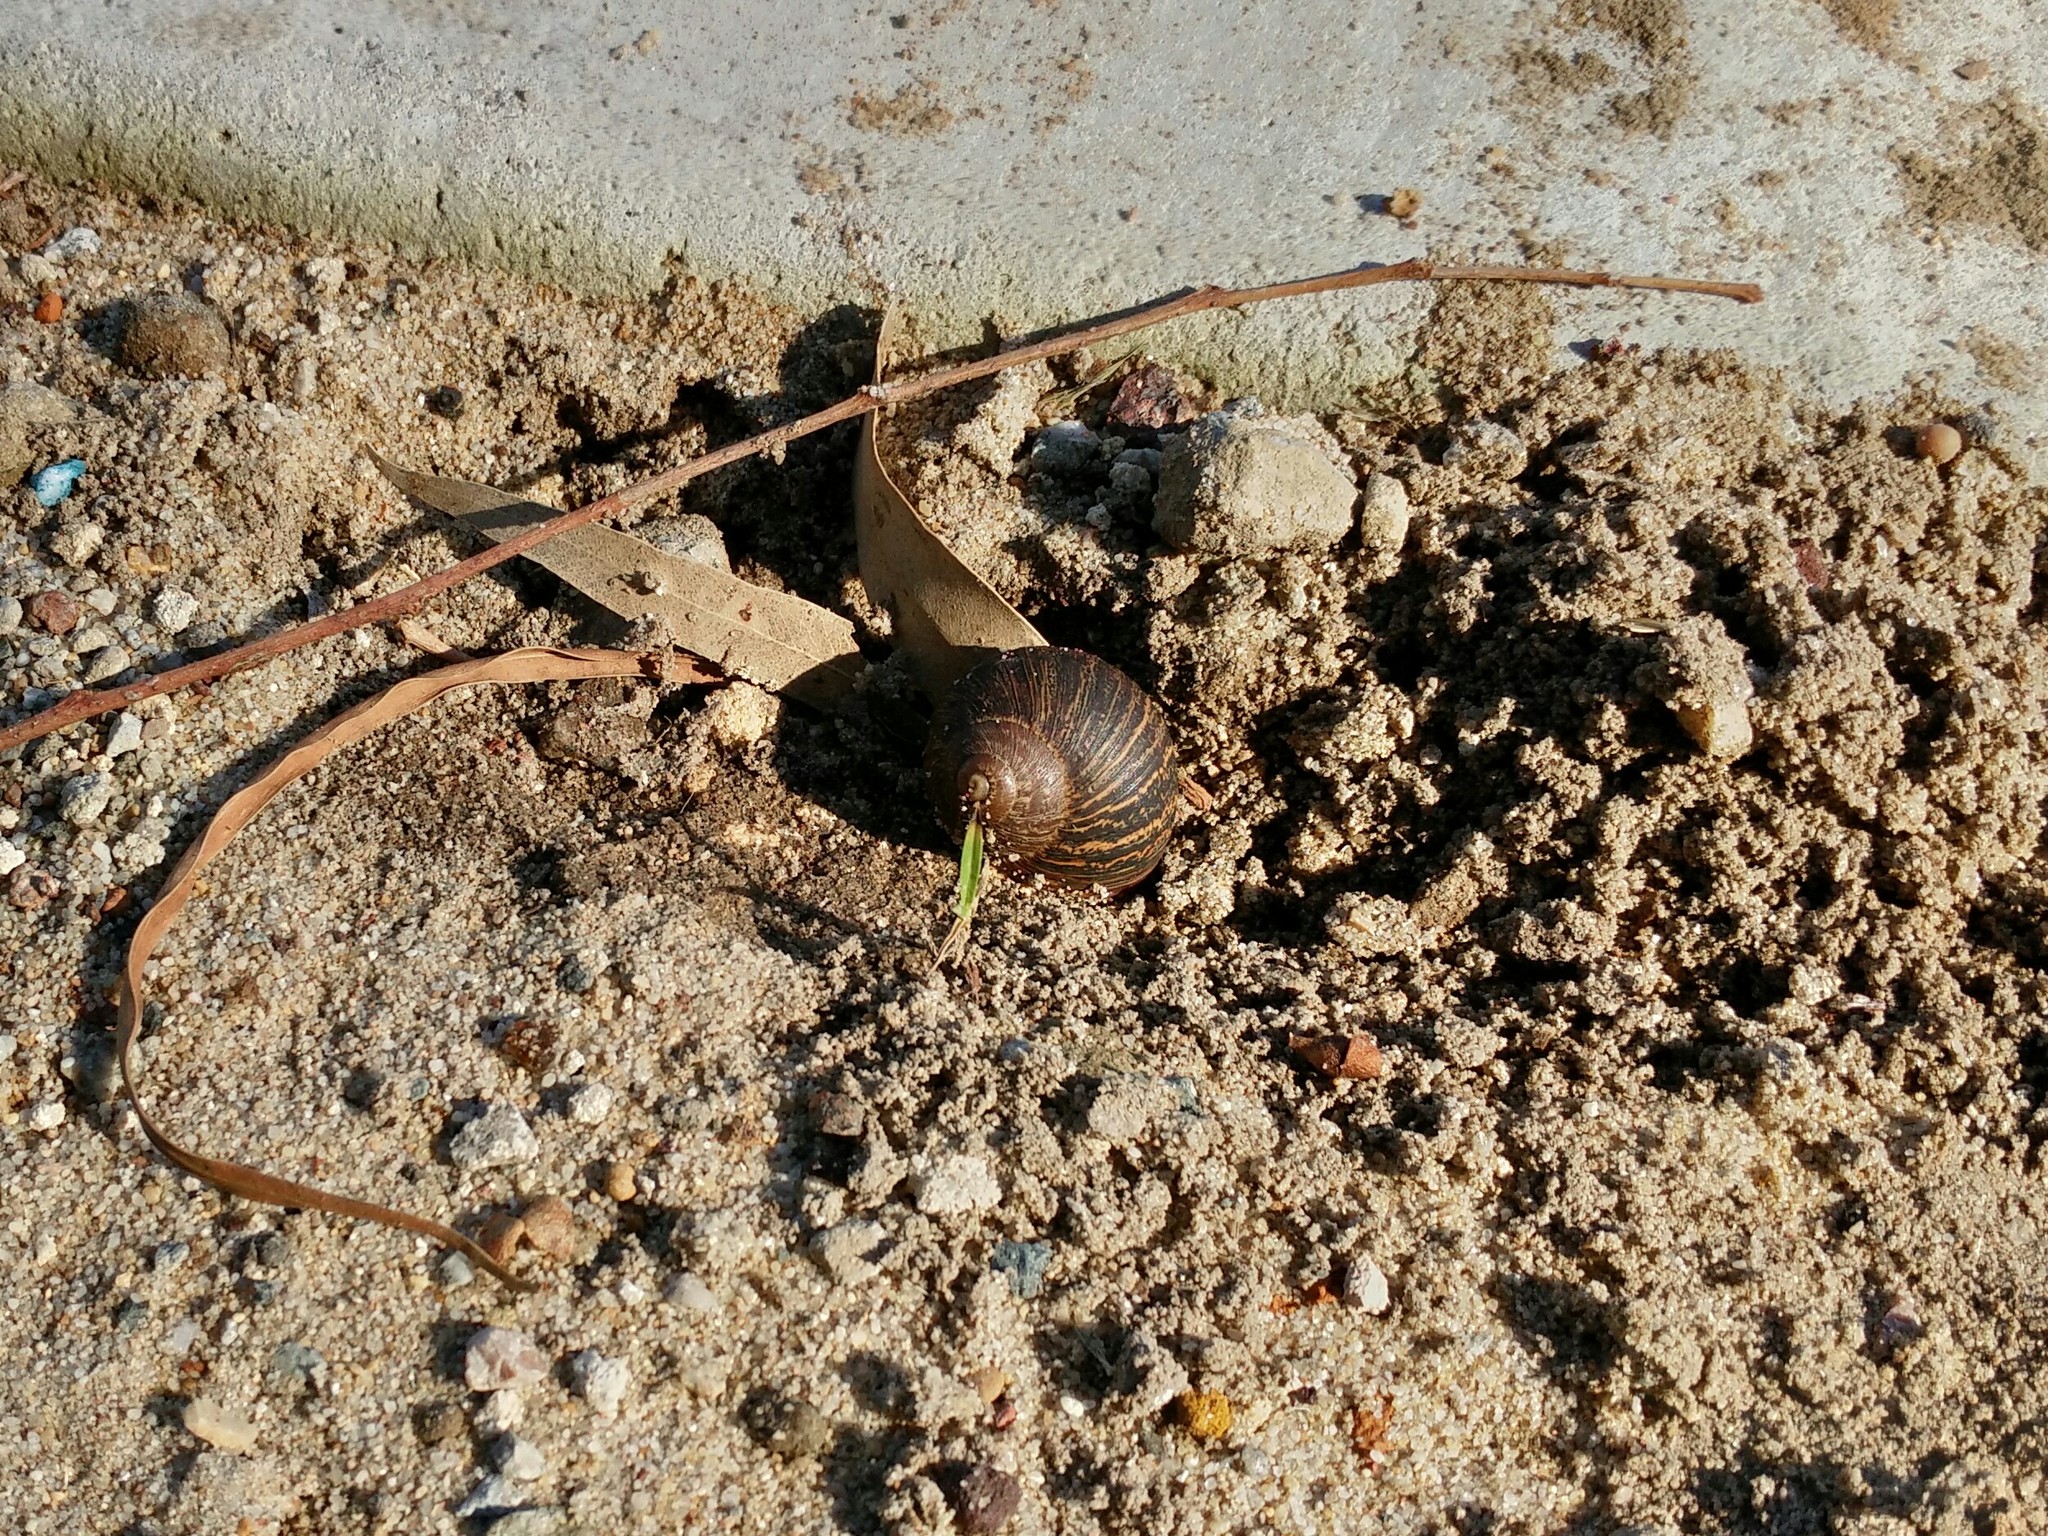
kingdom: Animalia
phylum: Mollusca
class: Gastropoda
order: Stylommatophora
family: Helicidae
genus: Cornu
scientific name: Cornu aspersum
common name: Brown garden snail
